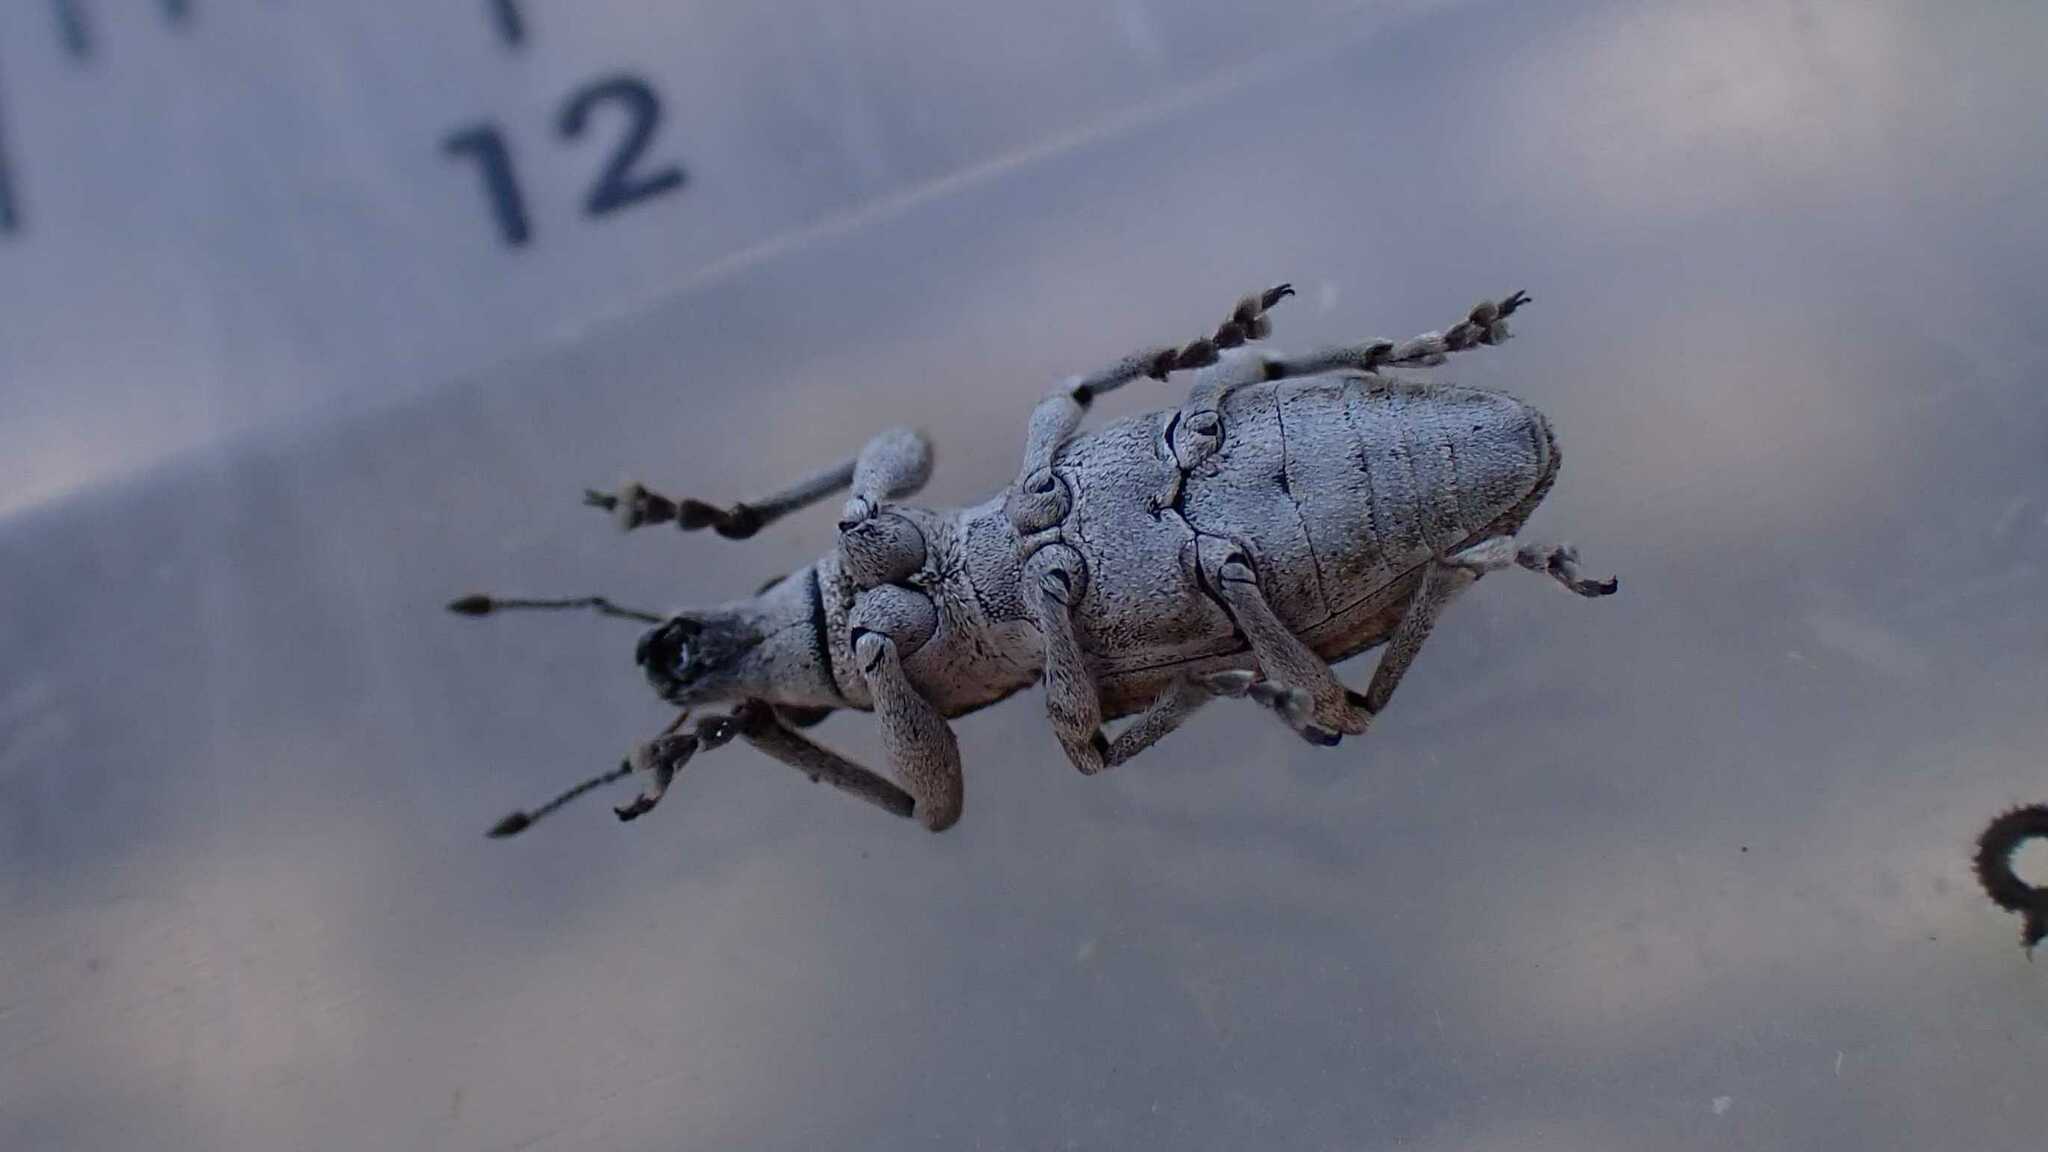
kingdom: Animalia
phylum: Arthropoda
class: Insecta
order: Coleoptera
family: Curculionidae
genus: Charagmus
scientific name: Charagmus griseus
